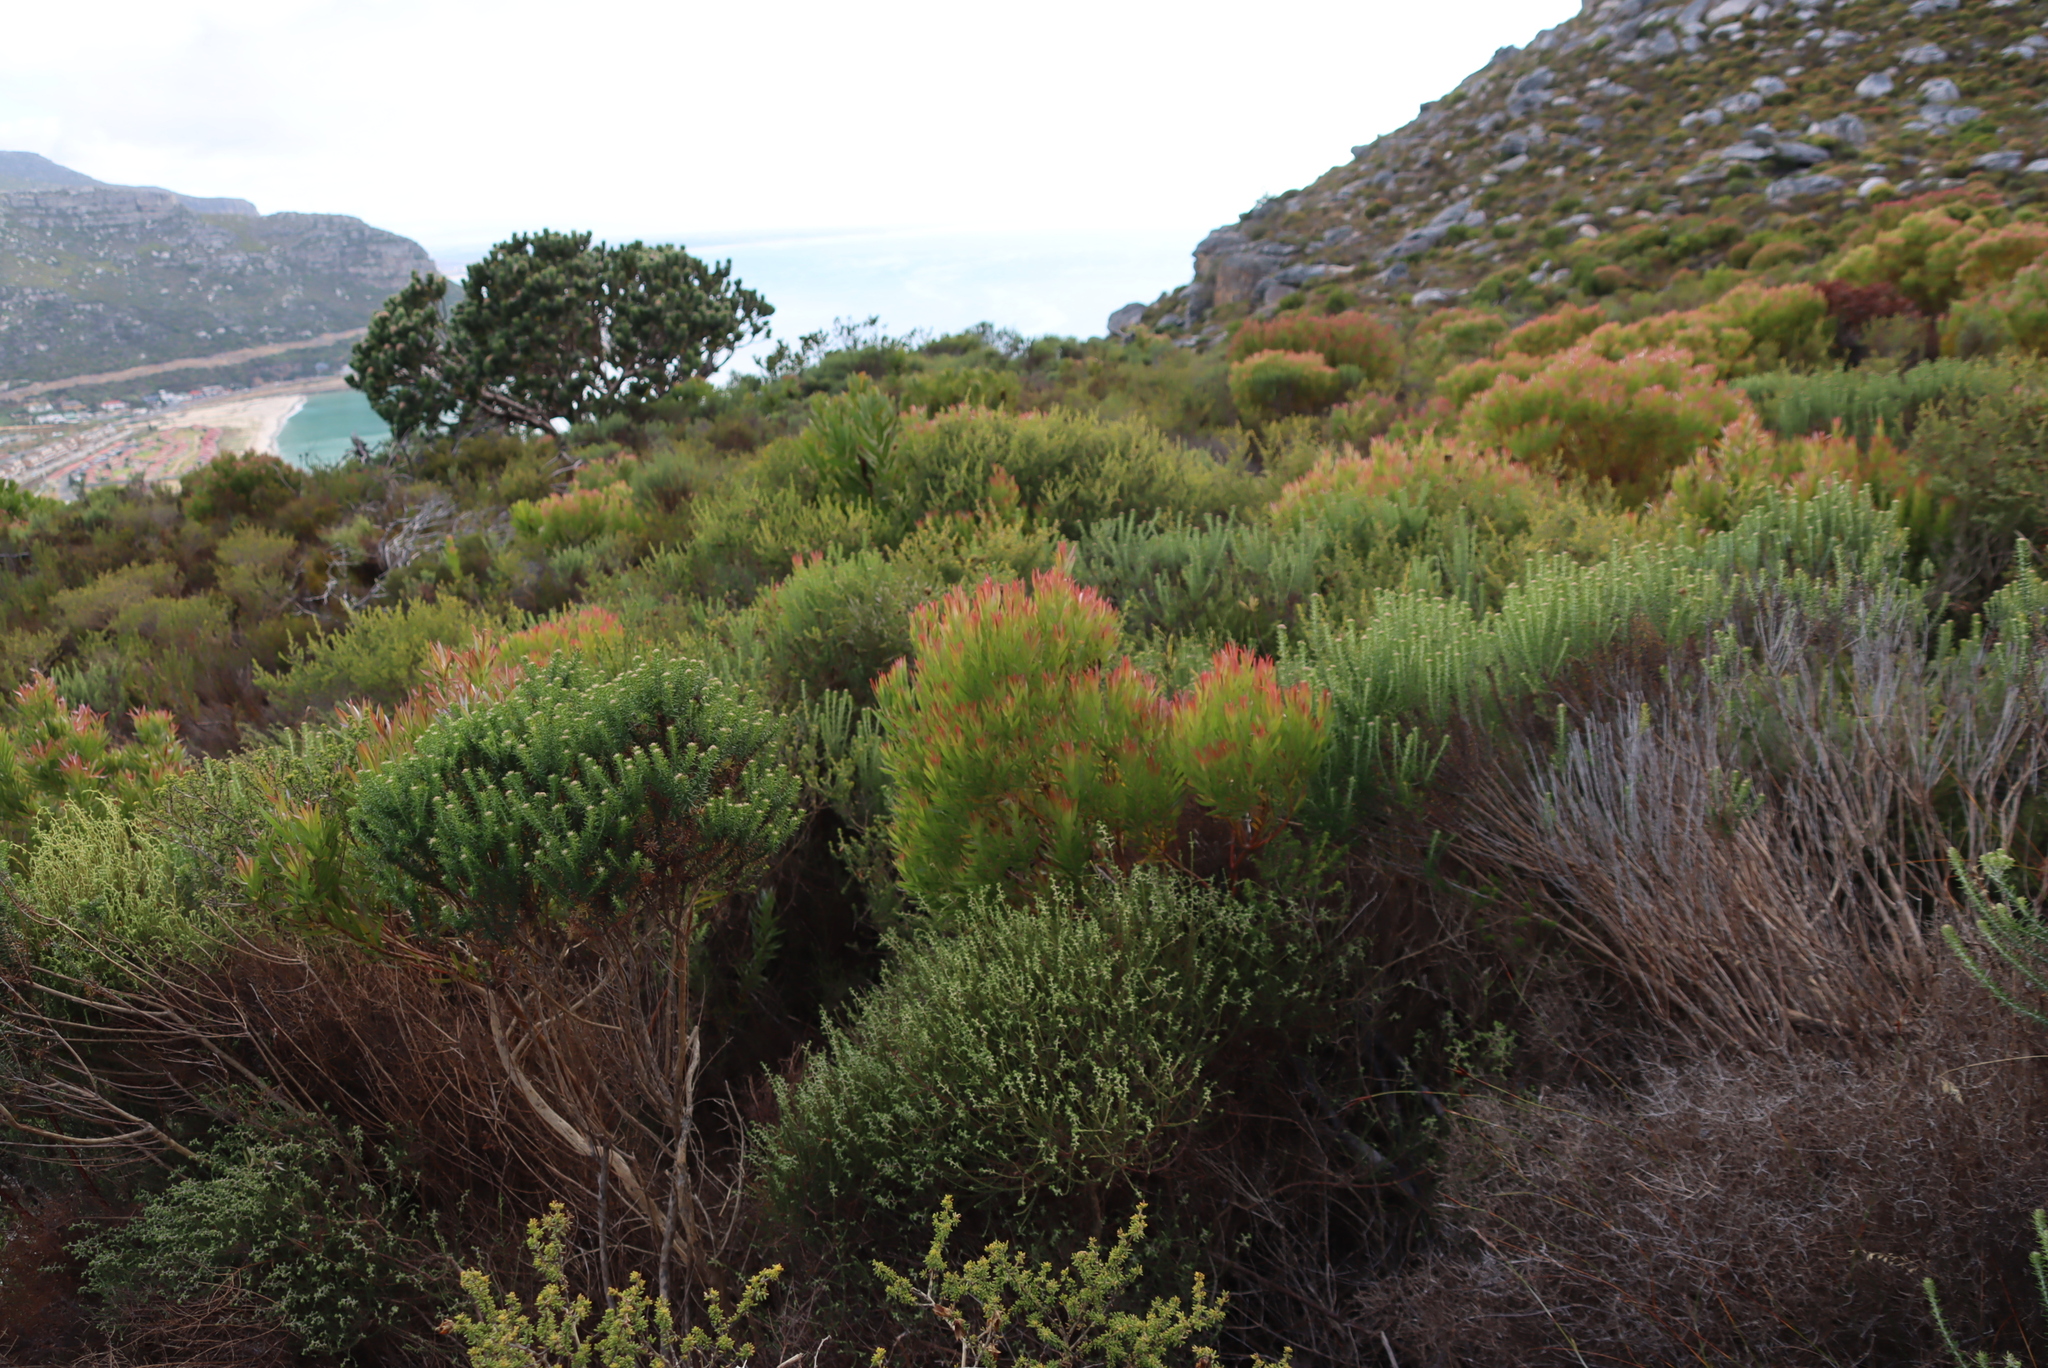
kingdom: Plantae
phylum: Tracheophyta
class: Magnoliopsida
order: Proteales
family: Proteaceae
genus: Leucadendron
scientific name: Leucadendron xanthoconus
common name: Sickle-leaf conebush
